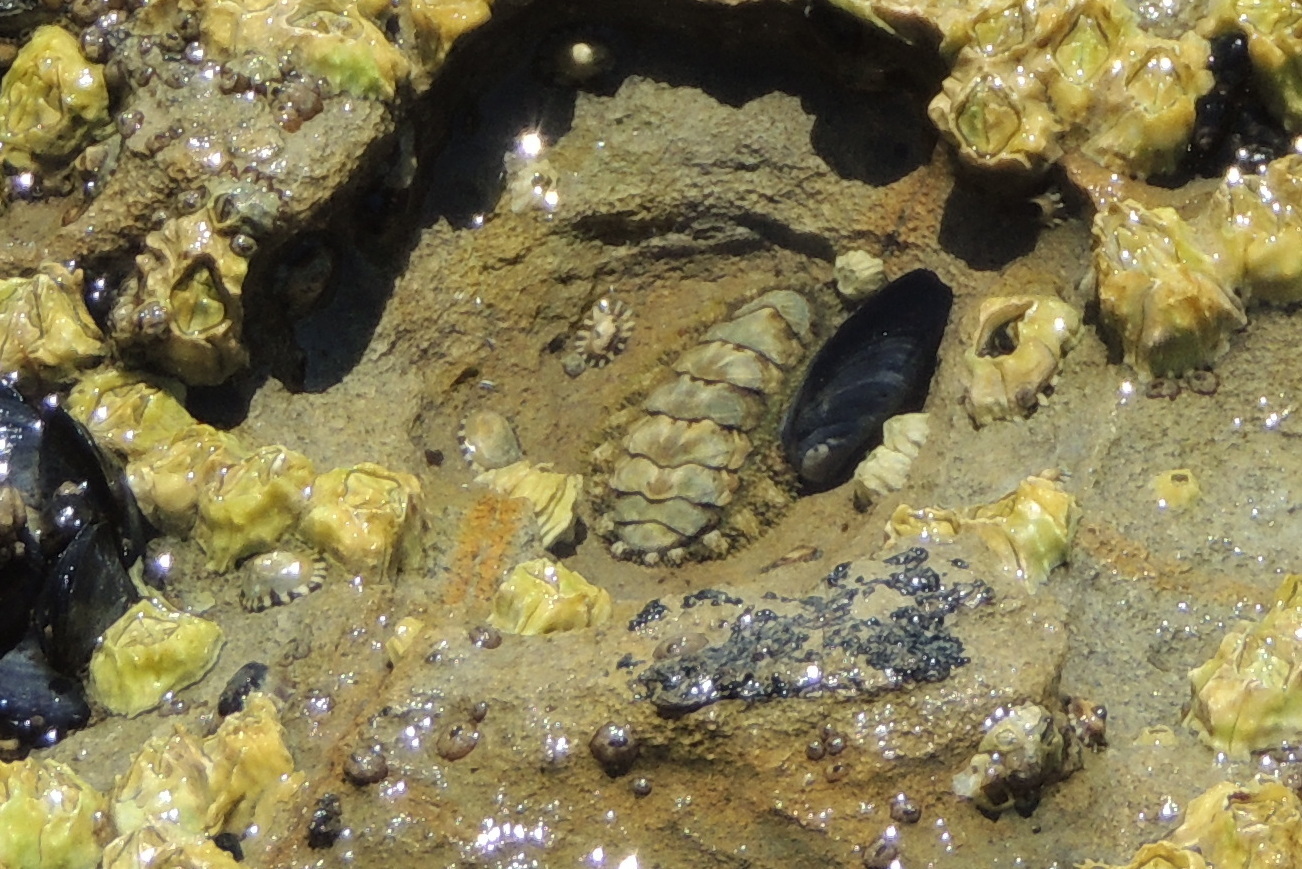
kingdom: Animalia
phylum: Mollusca
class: Polyplacophora
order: Chitonida
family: Tonicellidae
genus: Nuttallina
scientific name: Nuttallina californica
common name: California nuttall chiton
